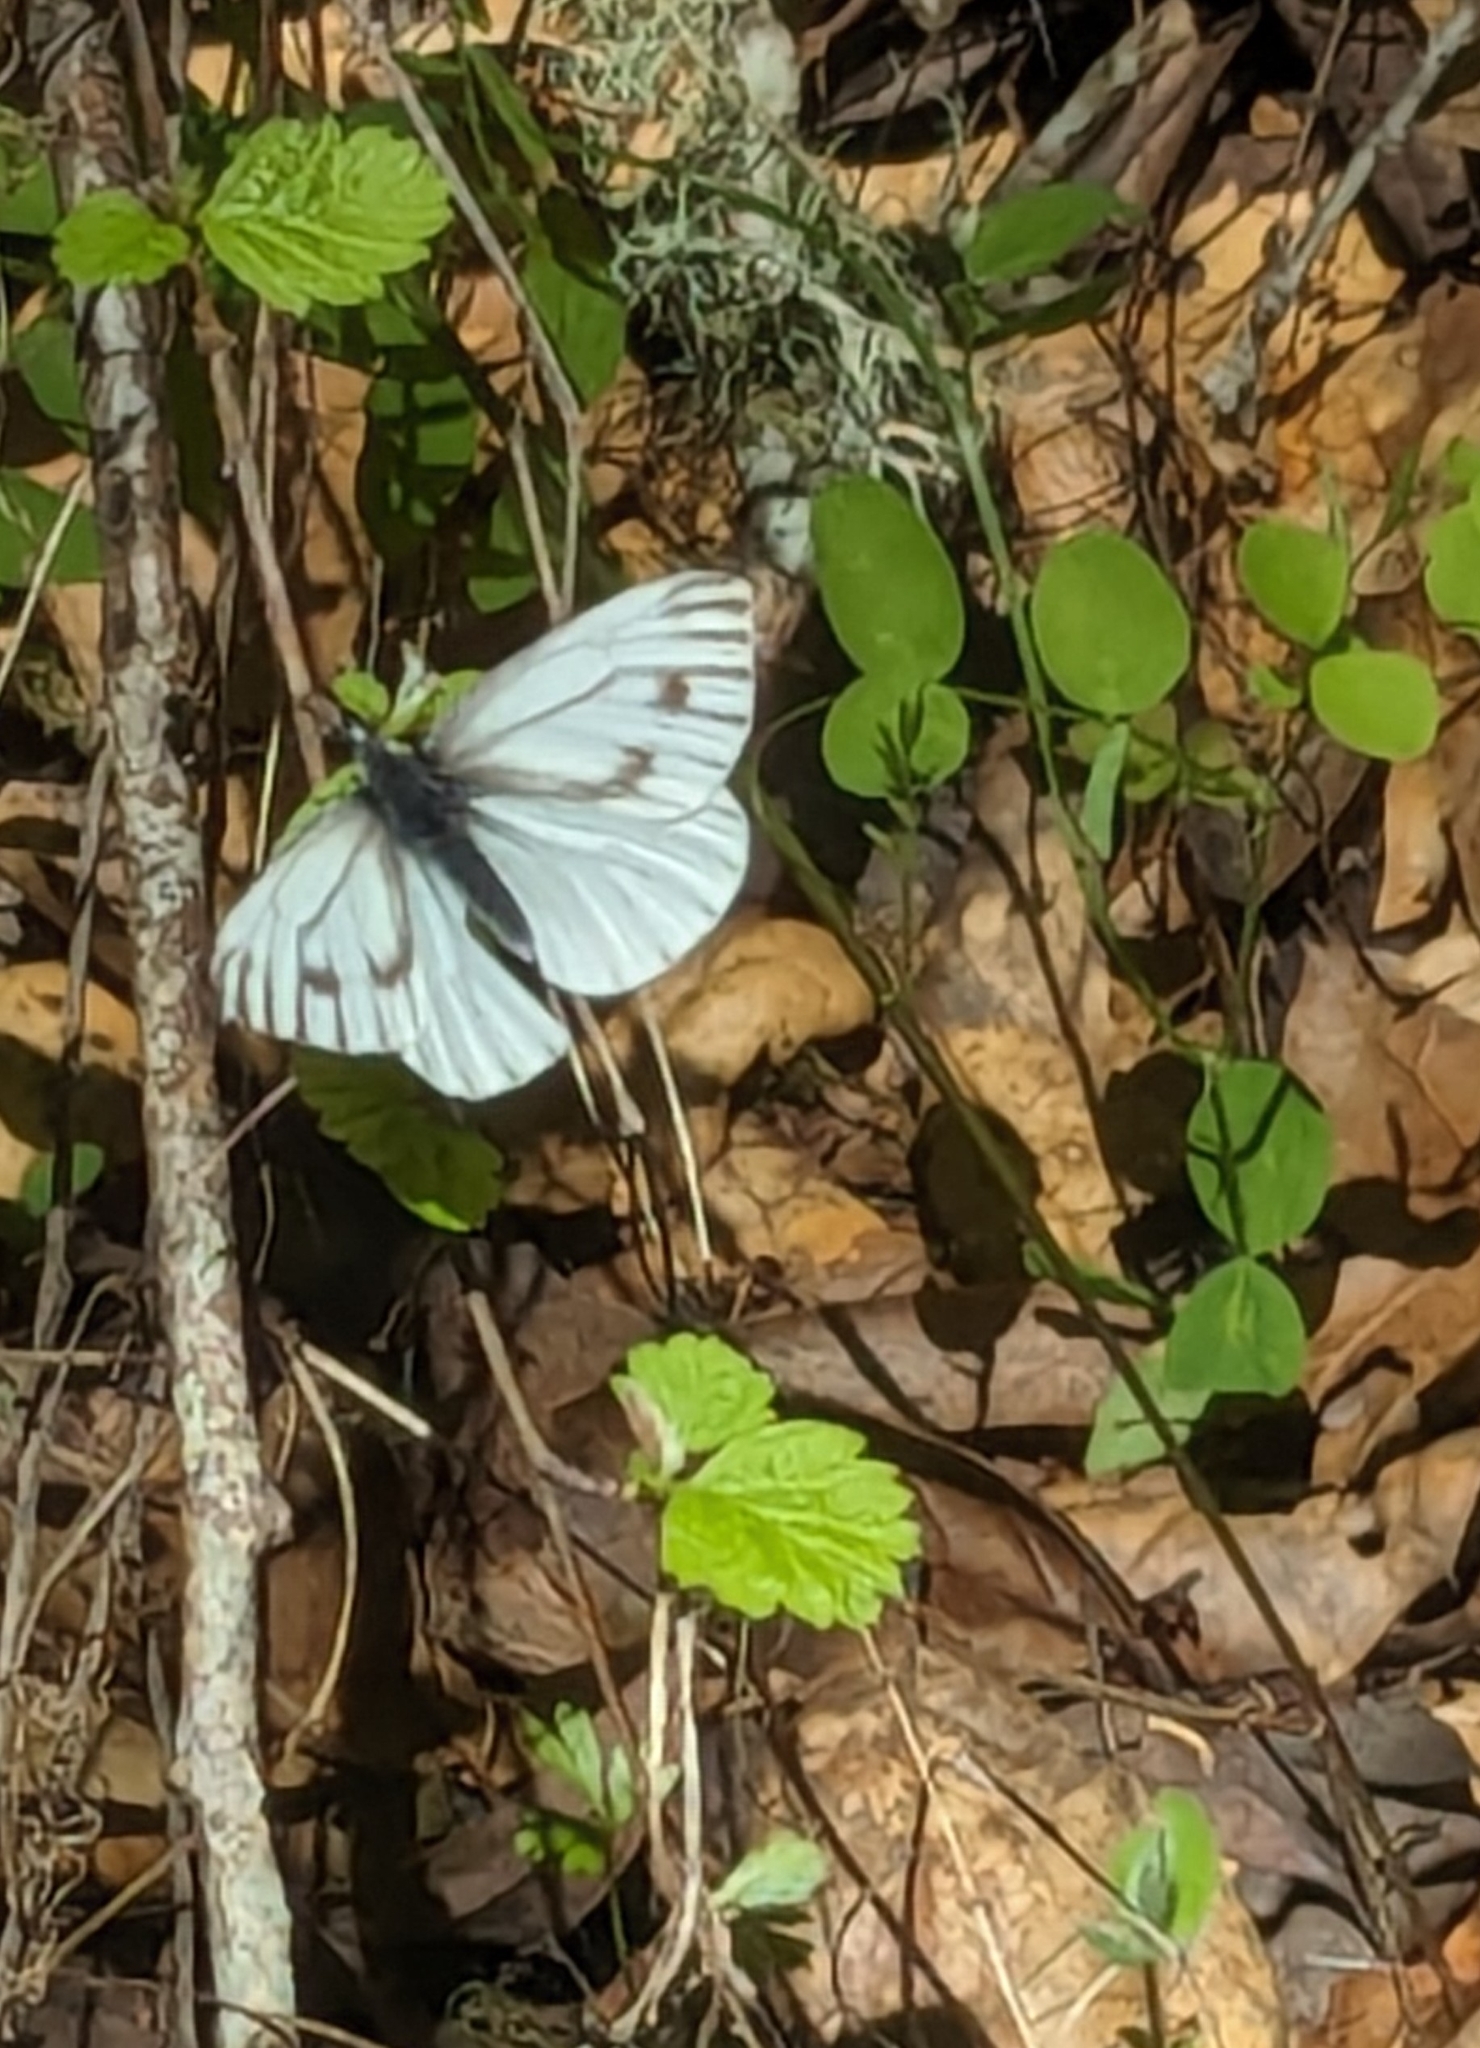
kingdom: Animalia
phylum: Arthropoda
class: Insecta
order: Lepidoptera
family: Pieridae
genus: Pieris
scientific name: Pieris marginalis
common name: Margined white
